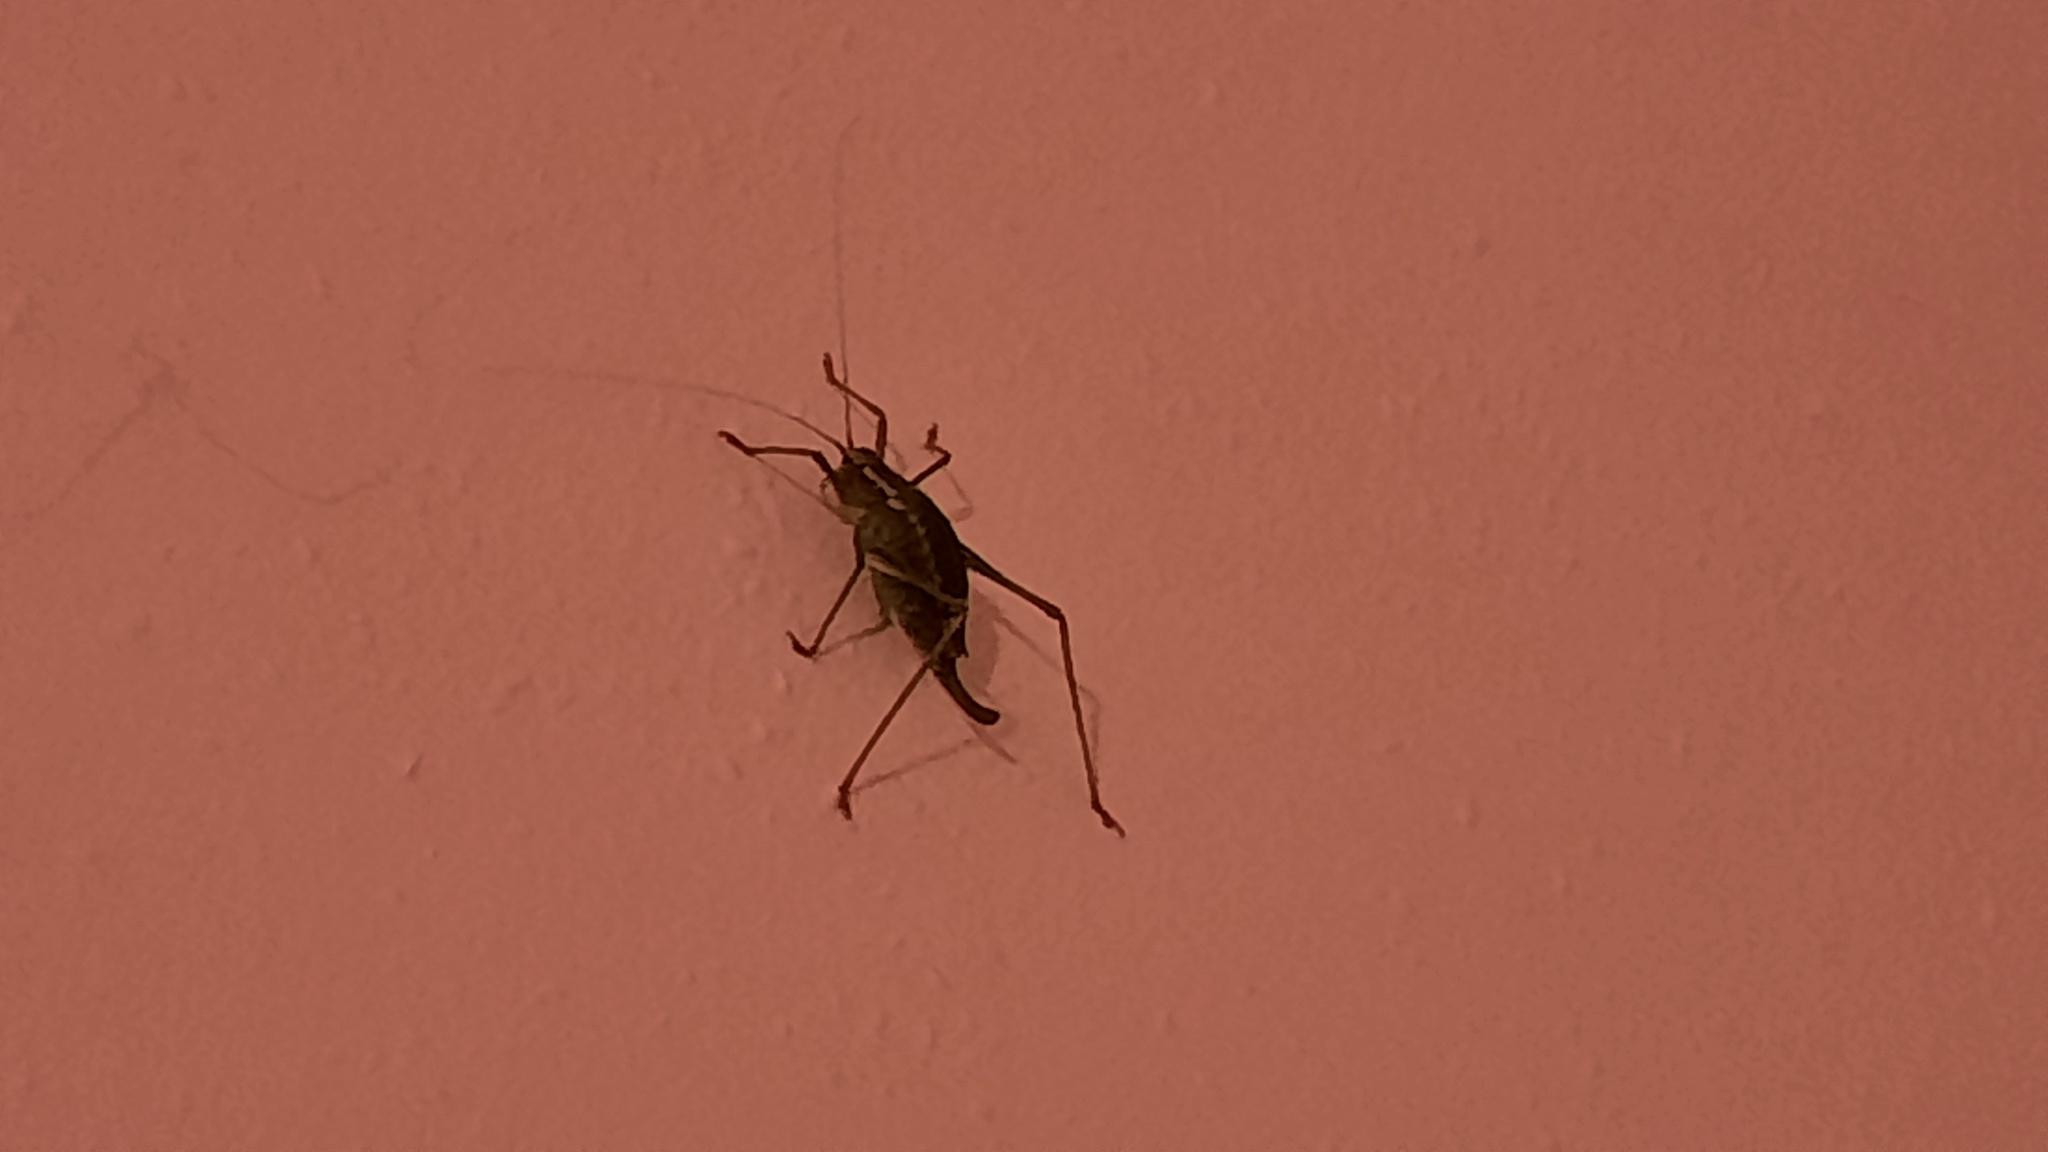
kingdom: Animalia
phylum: Arthropoda
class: Insecta
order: Orthoptera
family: Tettigoniidae
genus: Barbitistes
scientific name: Barbitistes constrictus
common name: Eastern saw-tailed bush cricket
